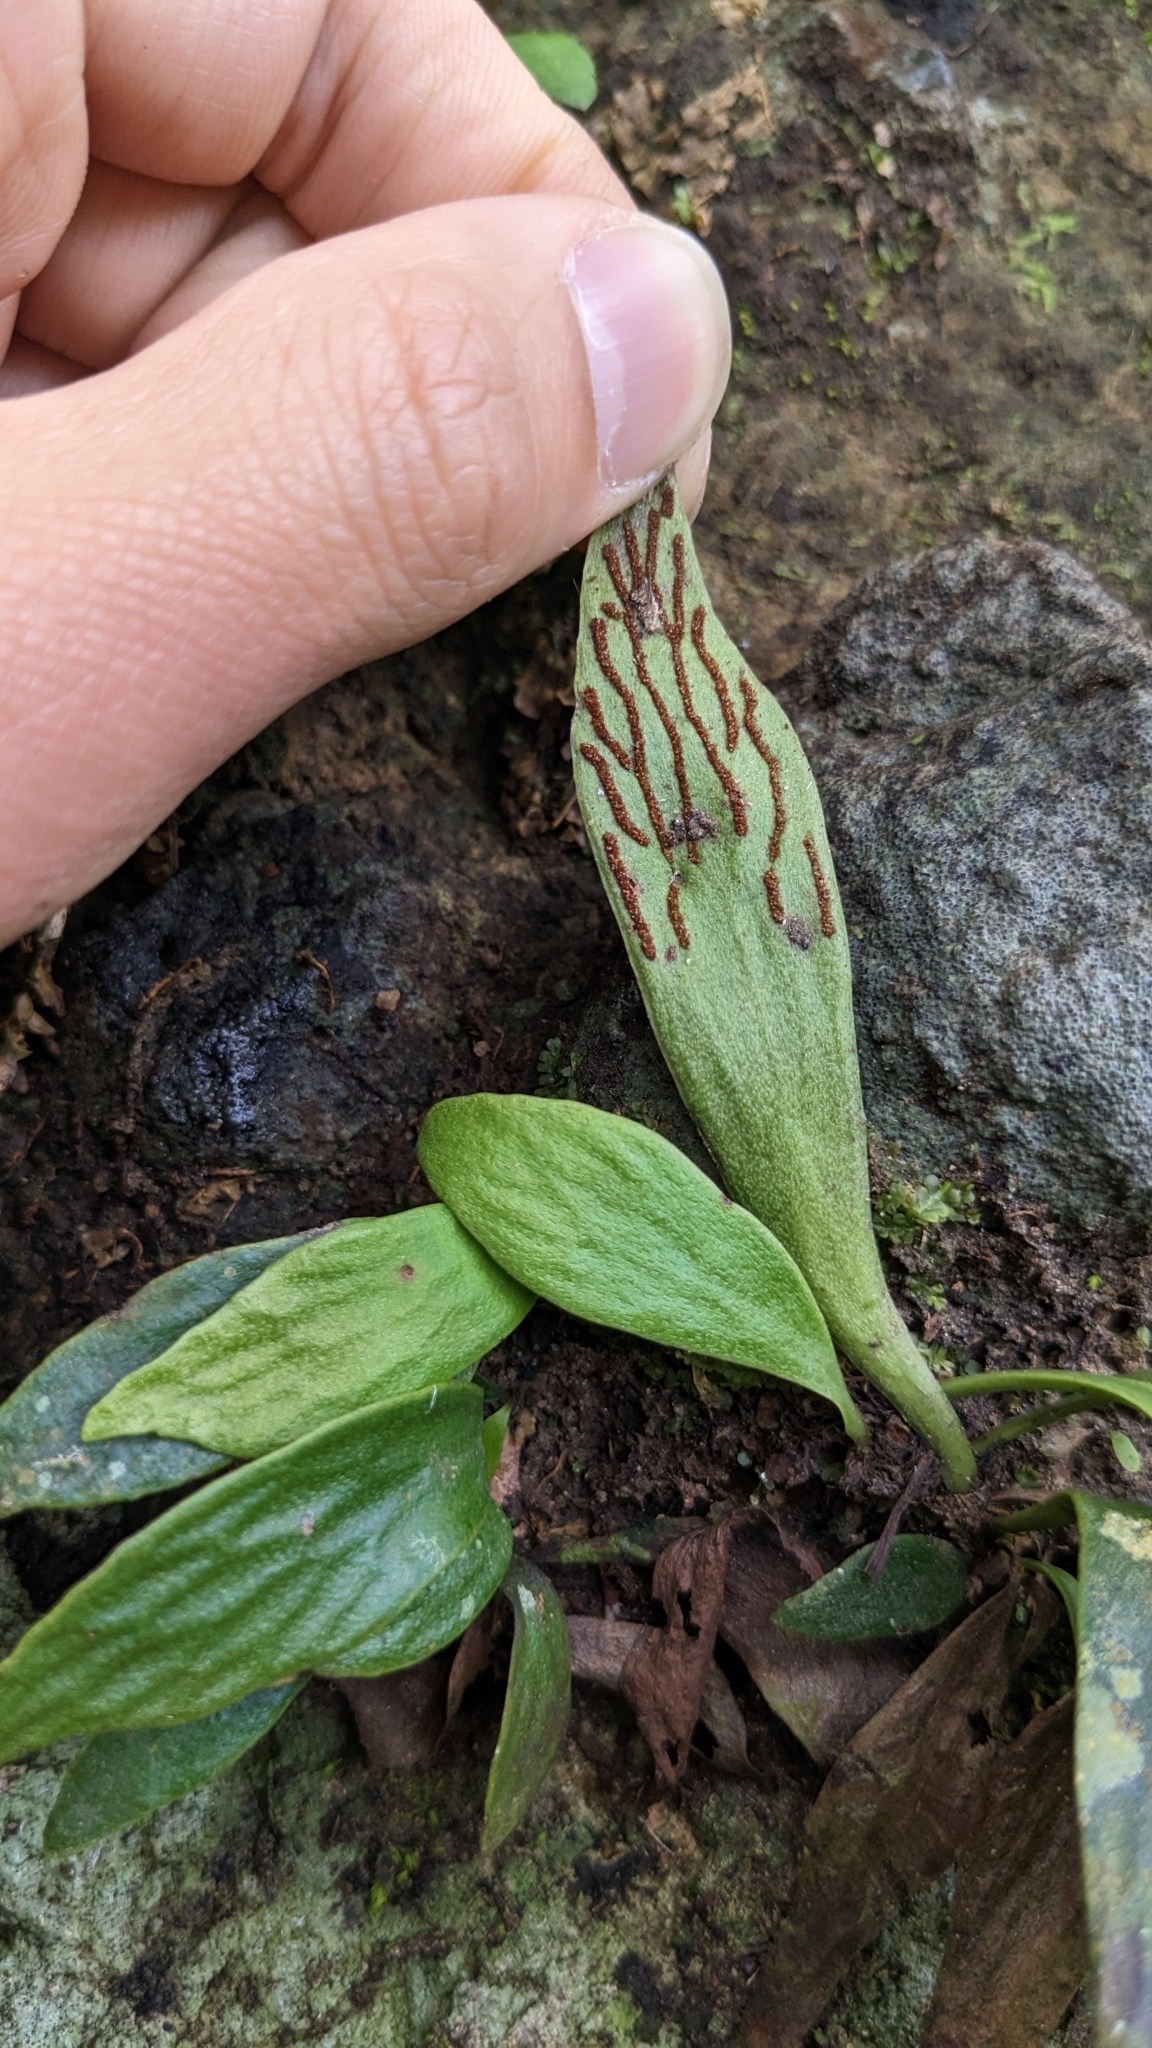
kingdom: Plantae
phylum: Tracheophyta
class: Polypodiopsida
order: Polypodiales
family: Pteridaceae
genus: Antrophyum
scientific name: Antrophyum formosanum
